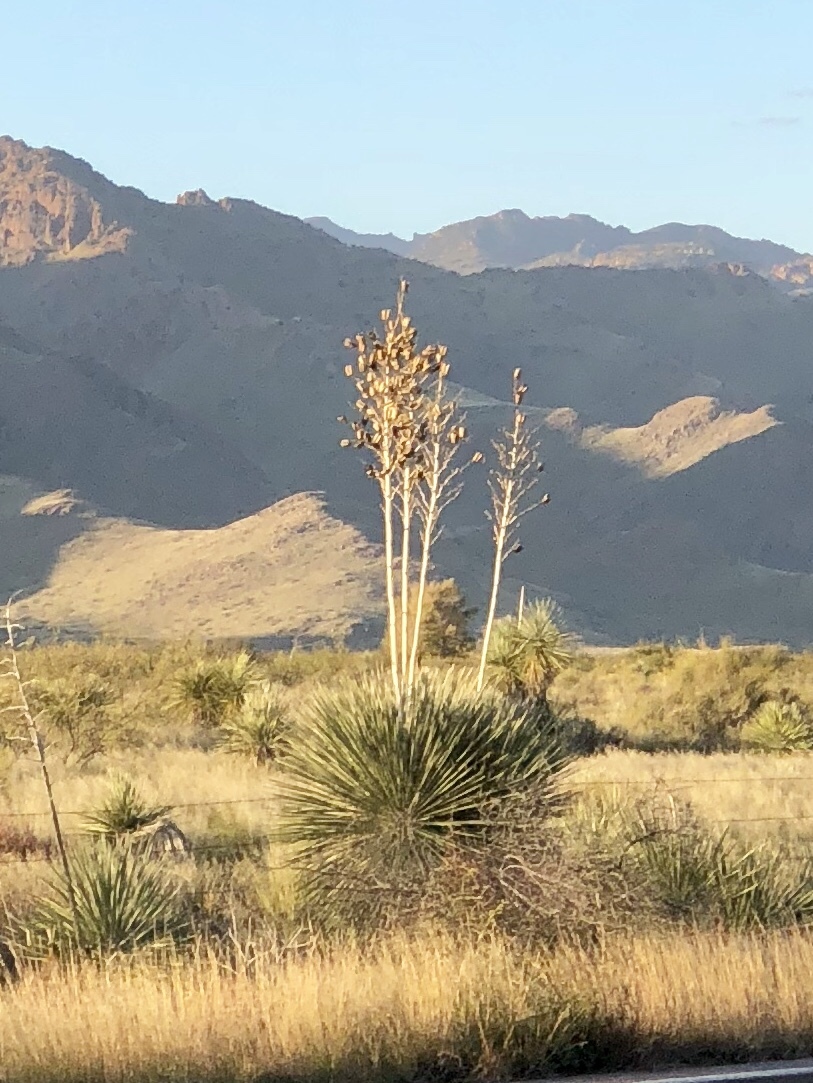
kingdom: Plantae
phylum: Tracheophyta
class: Liliopsida
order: Asparagales
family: Asparagaceae
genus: Yucca
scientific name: Yucca elata
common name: Palmella
